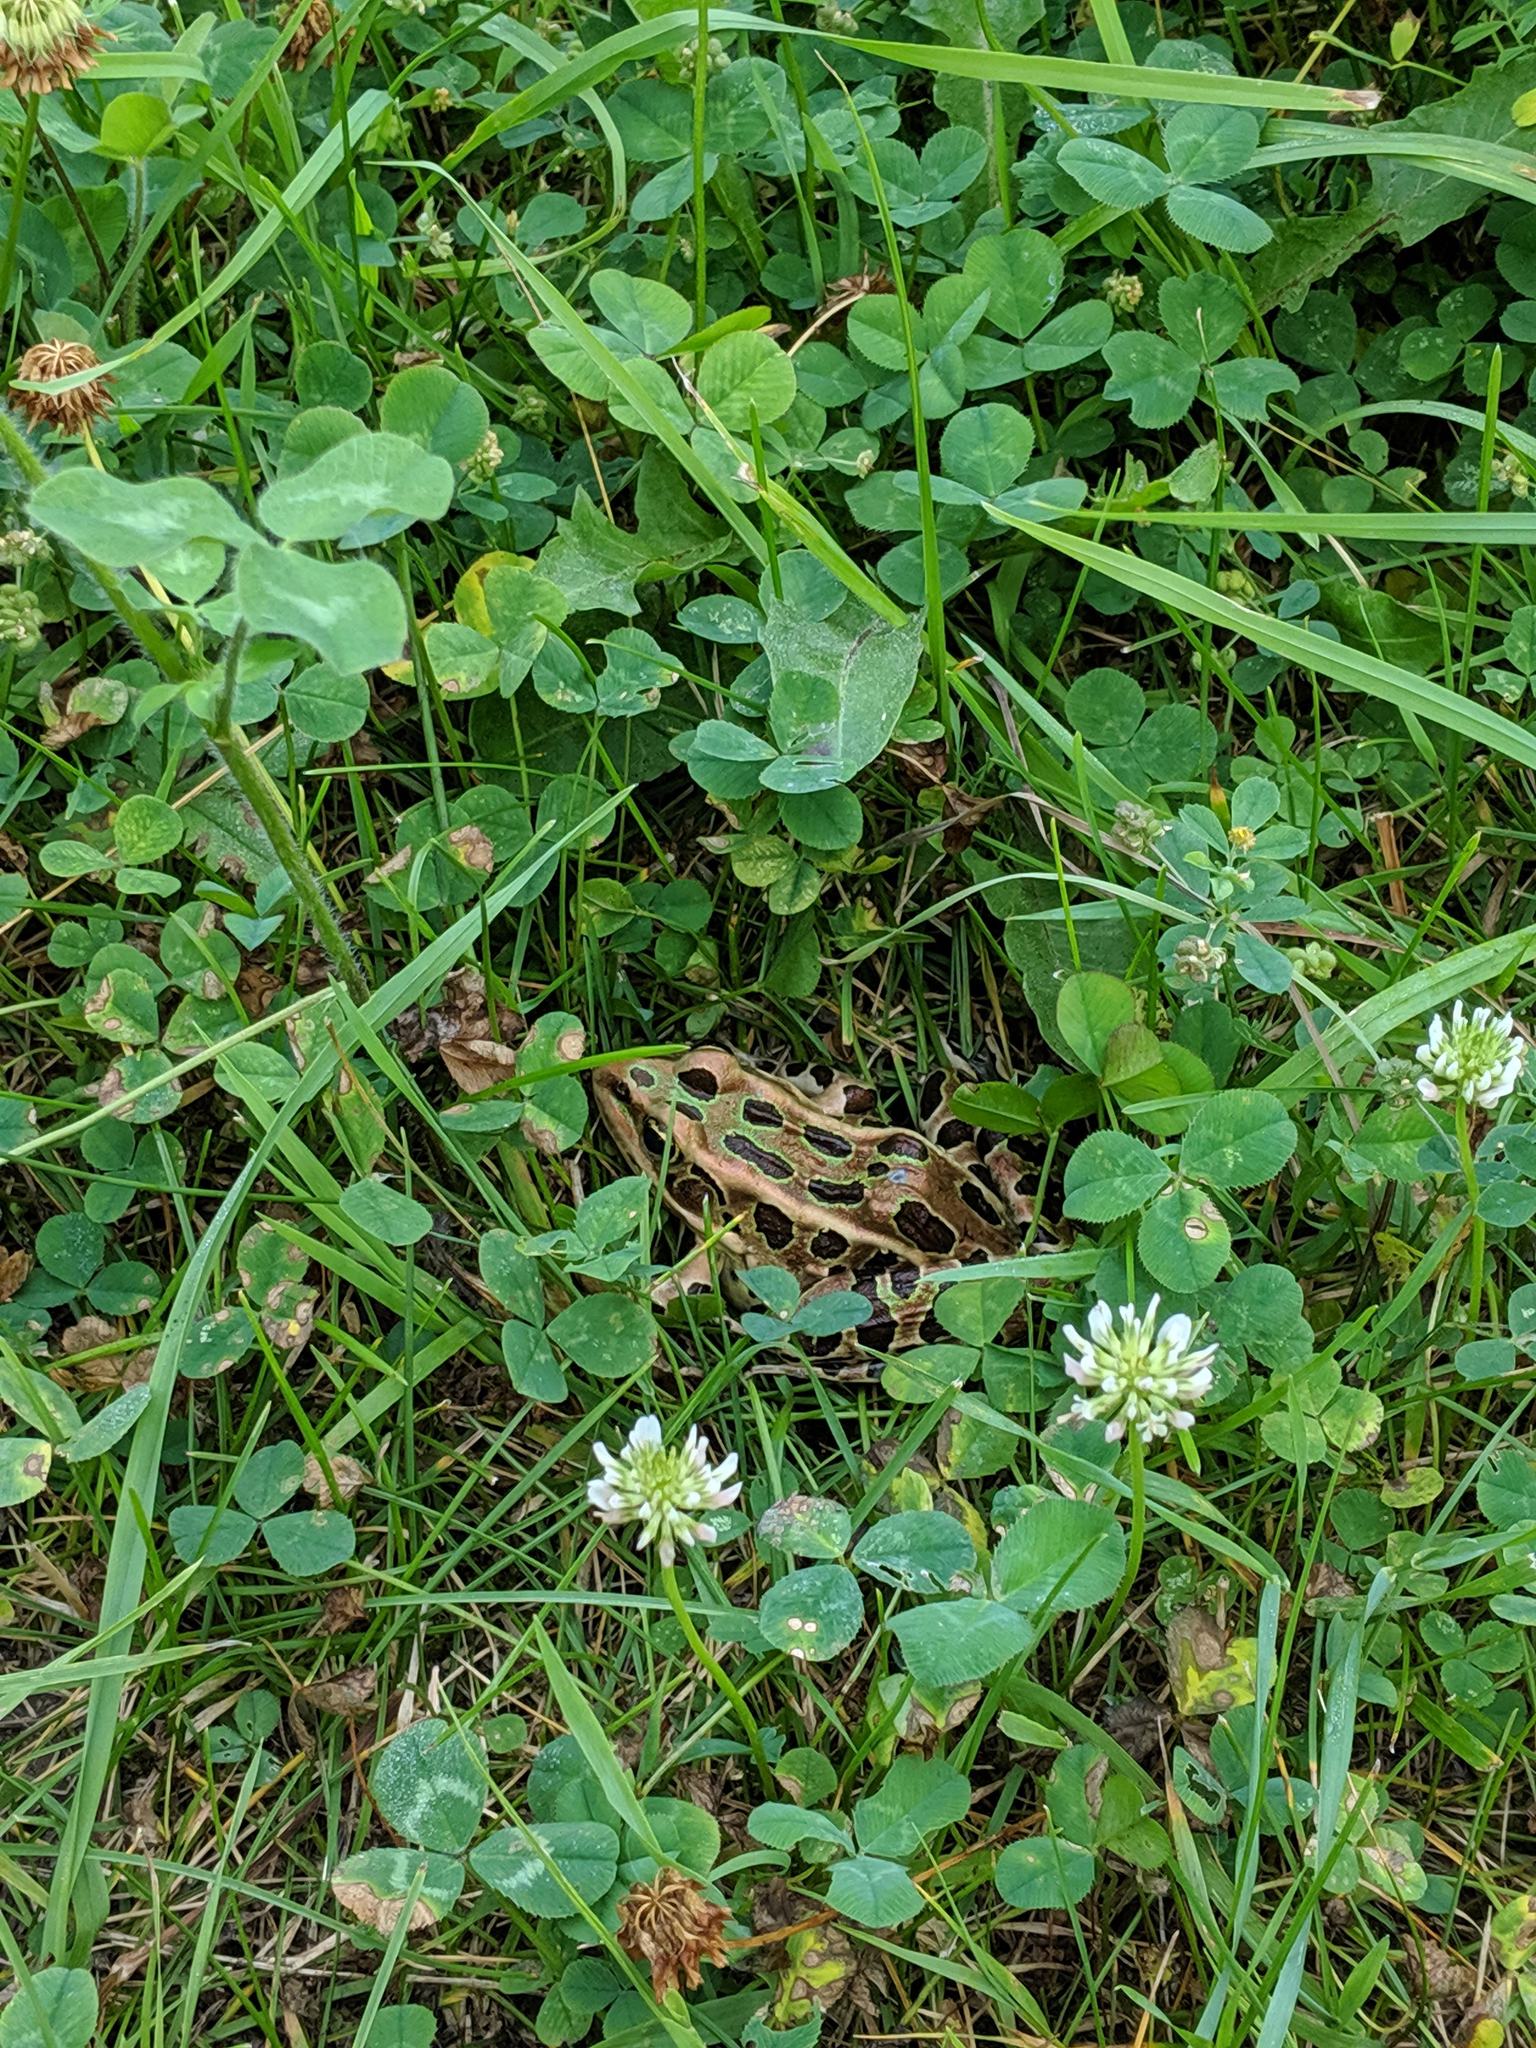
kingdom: Animalia
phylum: Chordata
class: Amphibia
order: Anura
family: Ranidae
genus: Lithobates
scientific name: Lithobates pipiens
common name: Northern leopard frog
